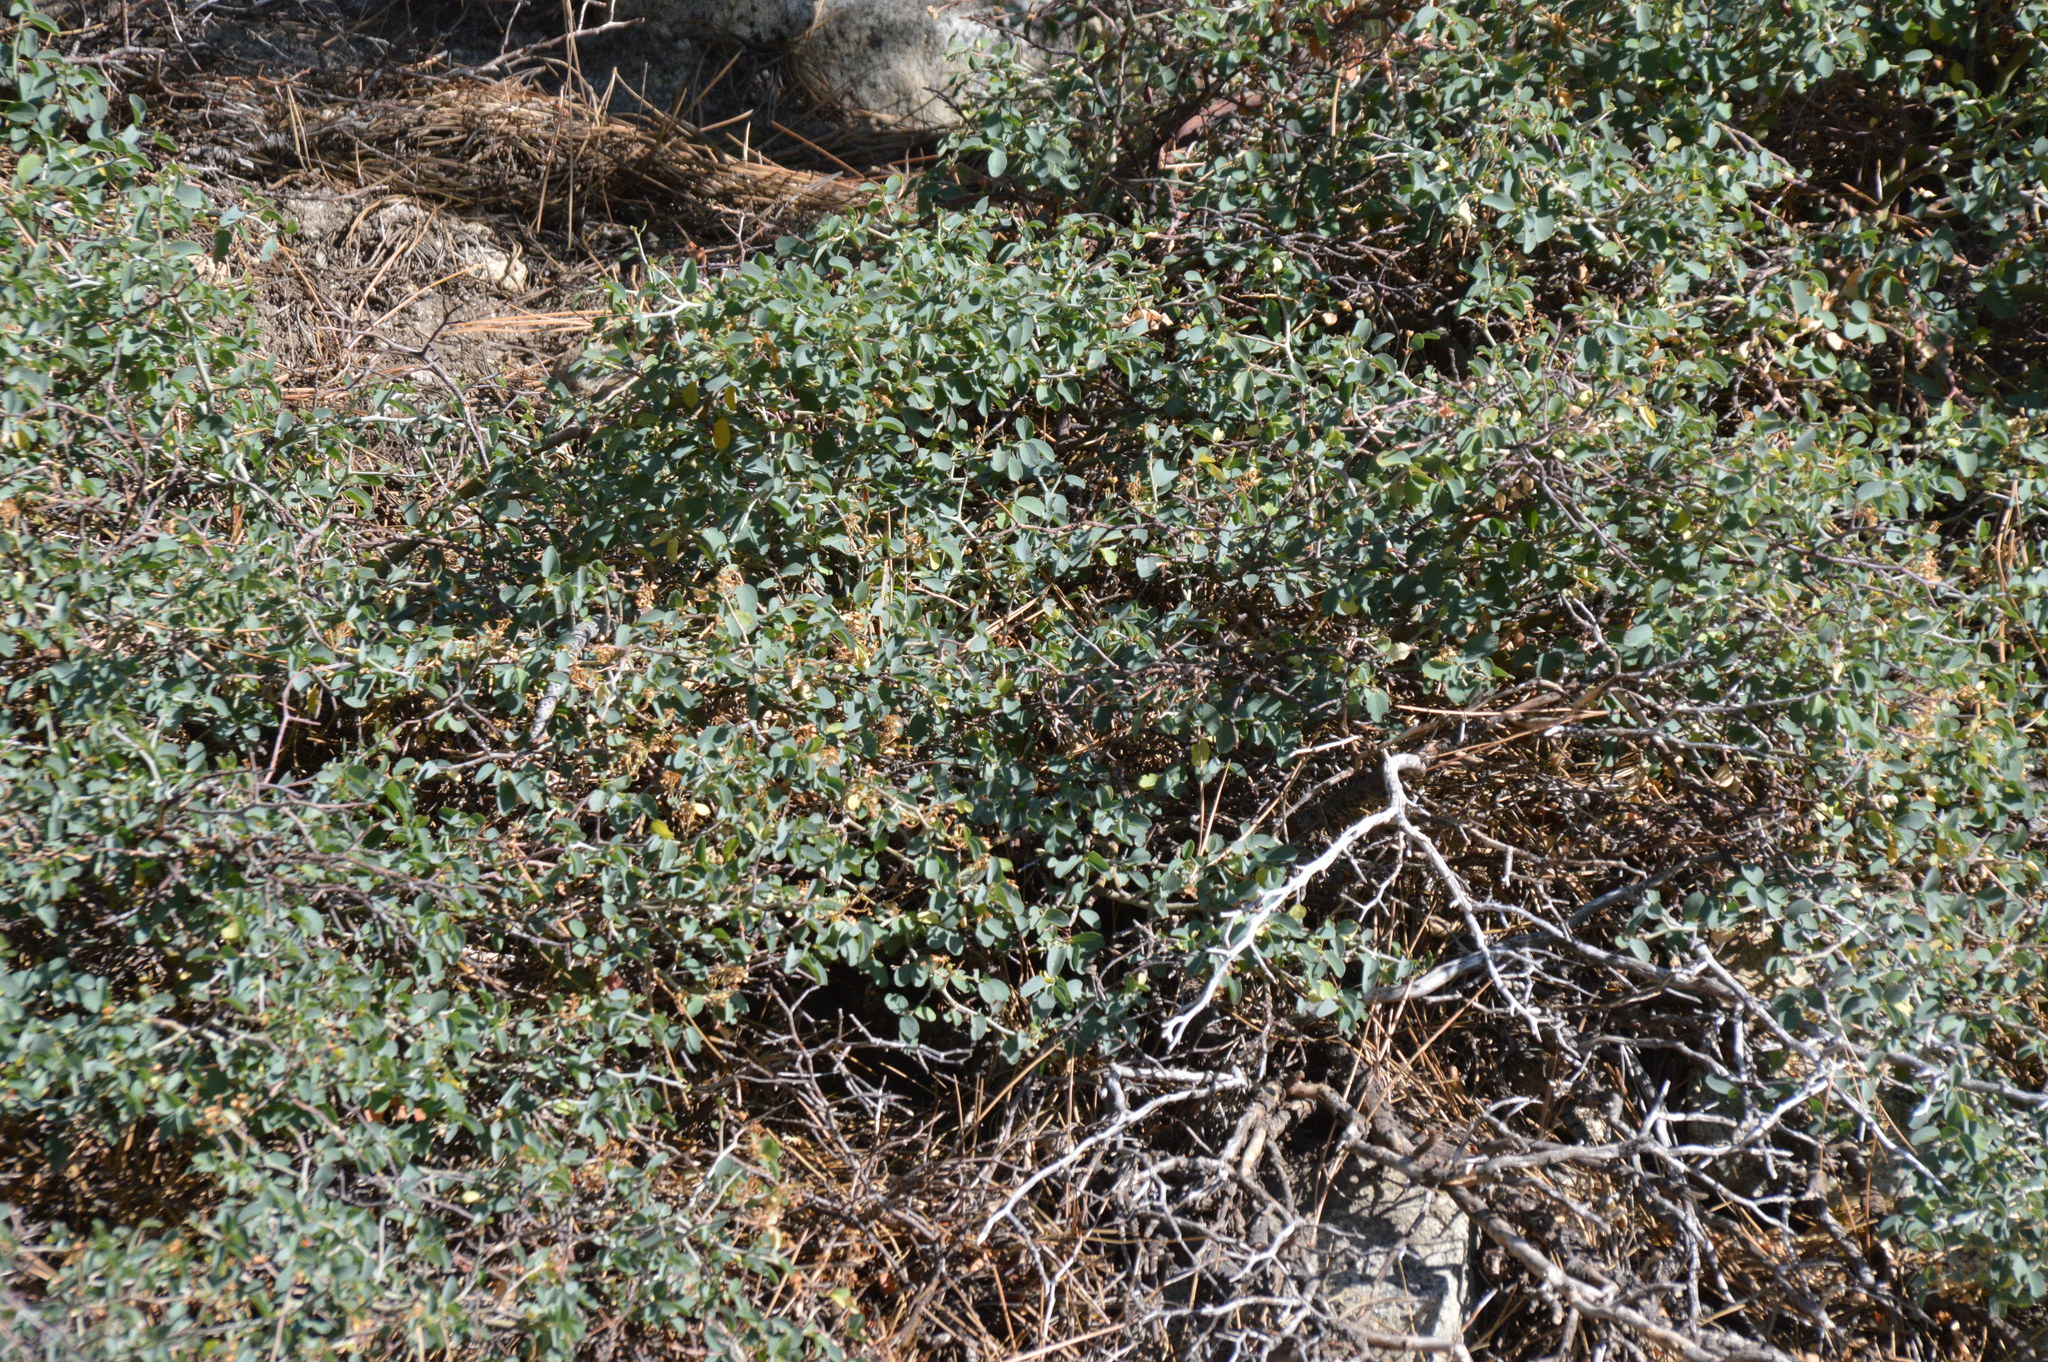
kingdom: Plantae
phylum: Tracheophyta
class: Magnoliopsida
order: Rosales
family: Rhamnaceae
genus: Ceanothus
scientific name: Ceanothus cordulatus
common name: Mountain whitethorn
